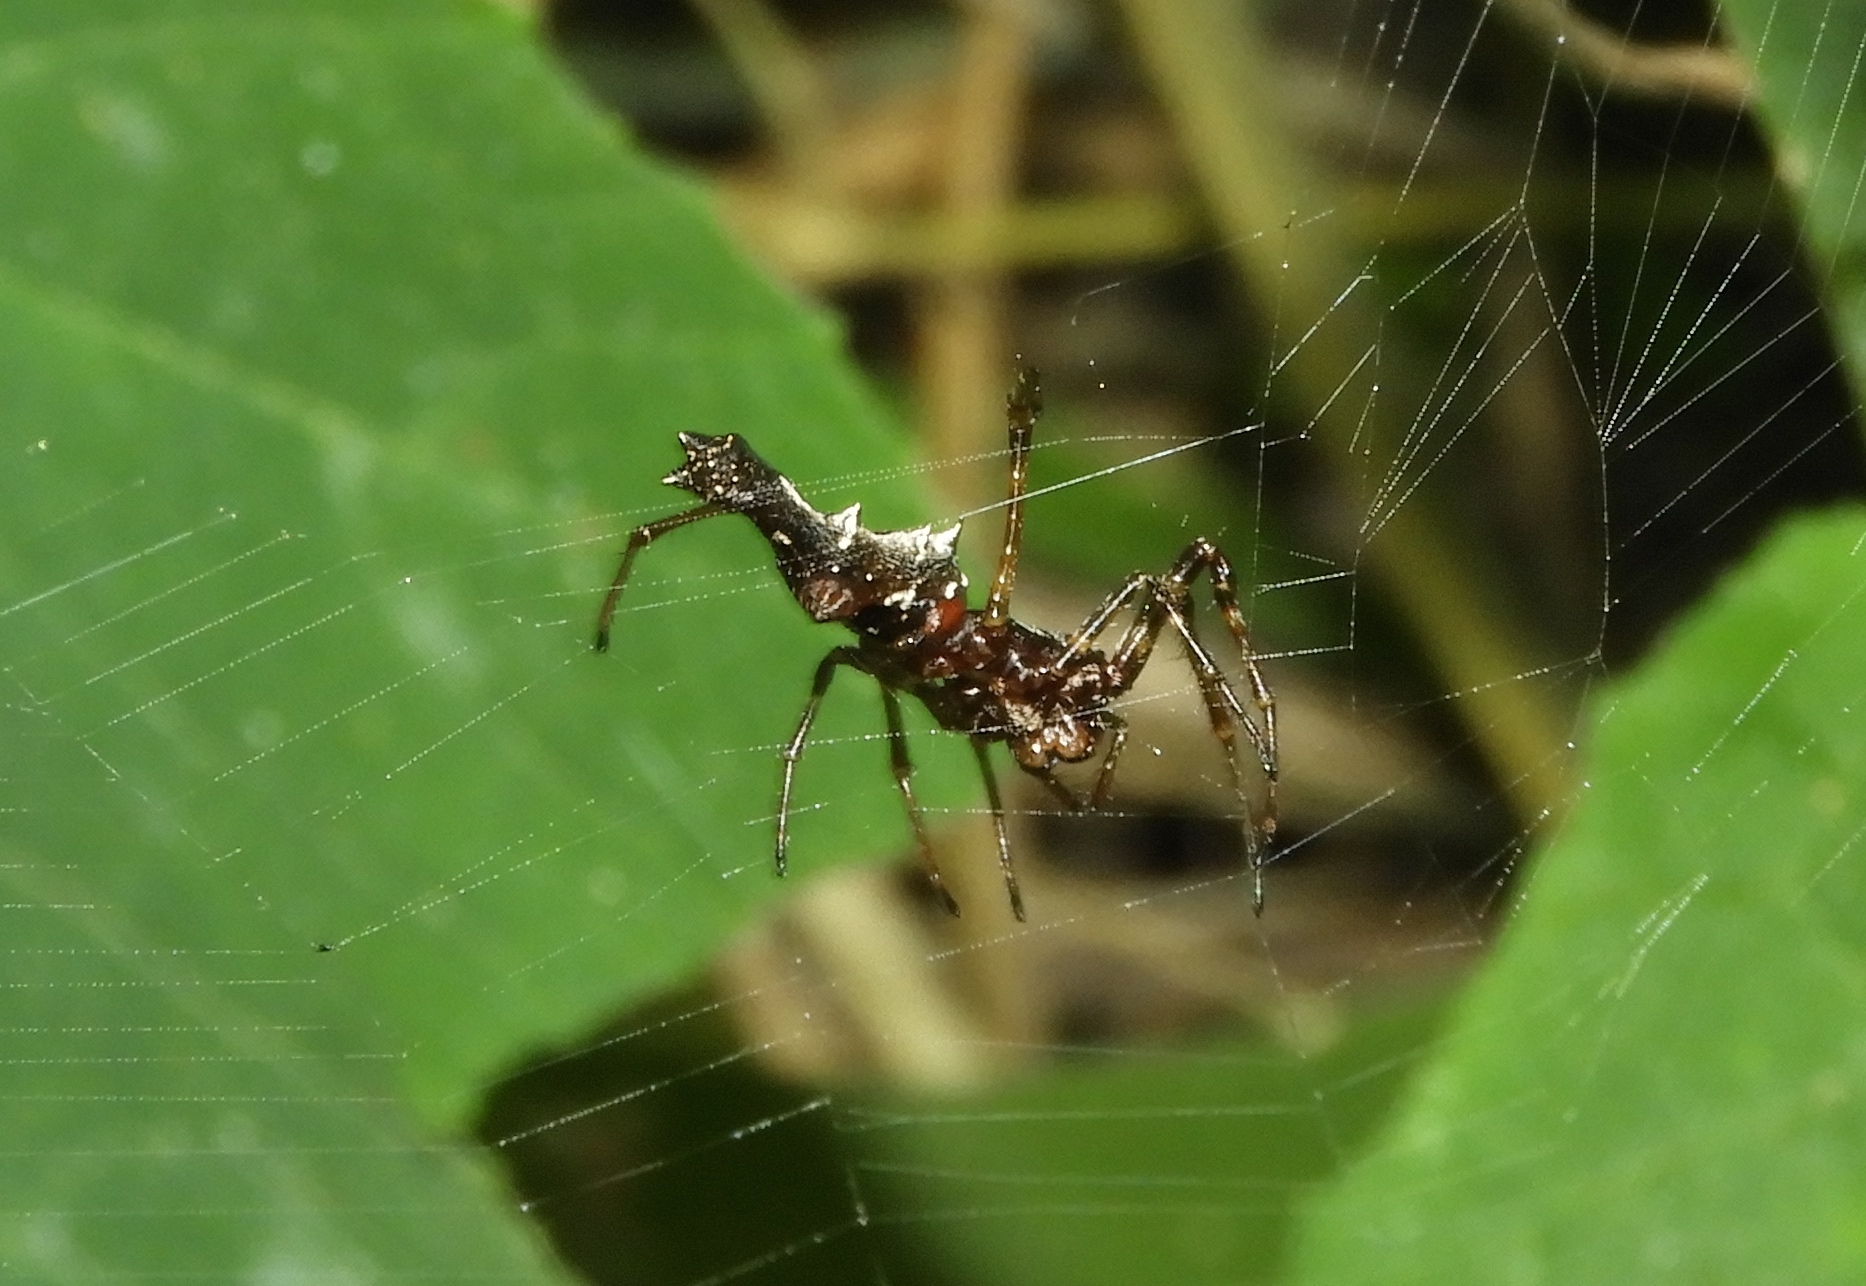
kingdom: Animalia
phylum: Arthropoda
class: Arachnida
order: Araneae
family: Araneidae
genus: Edricus
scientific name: Edricus productus
